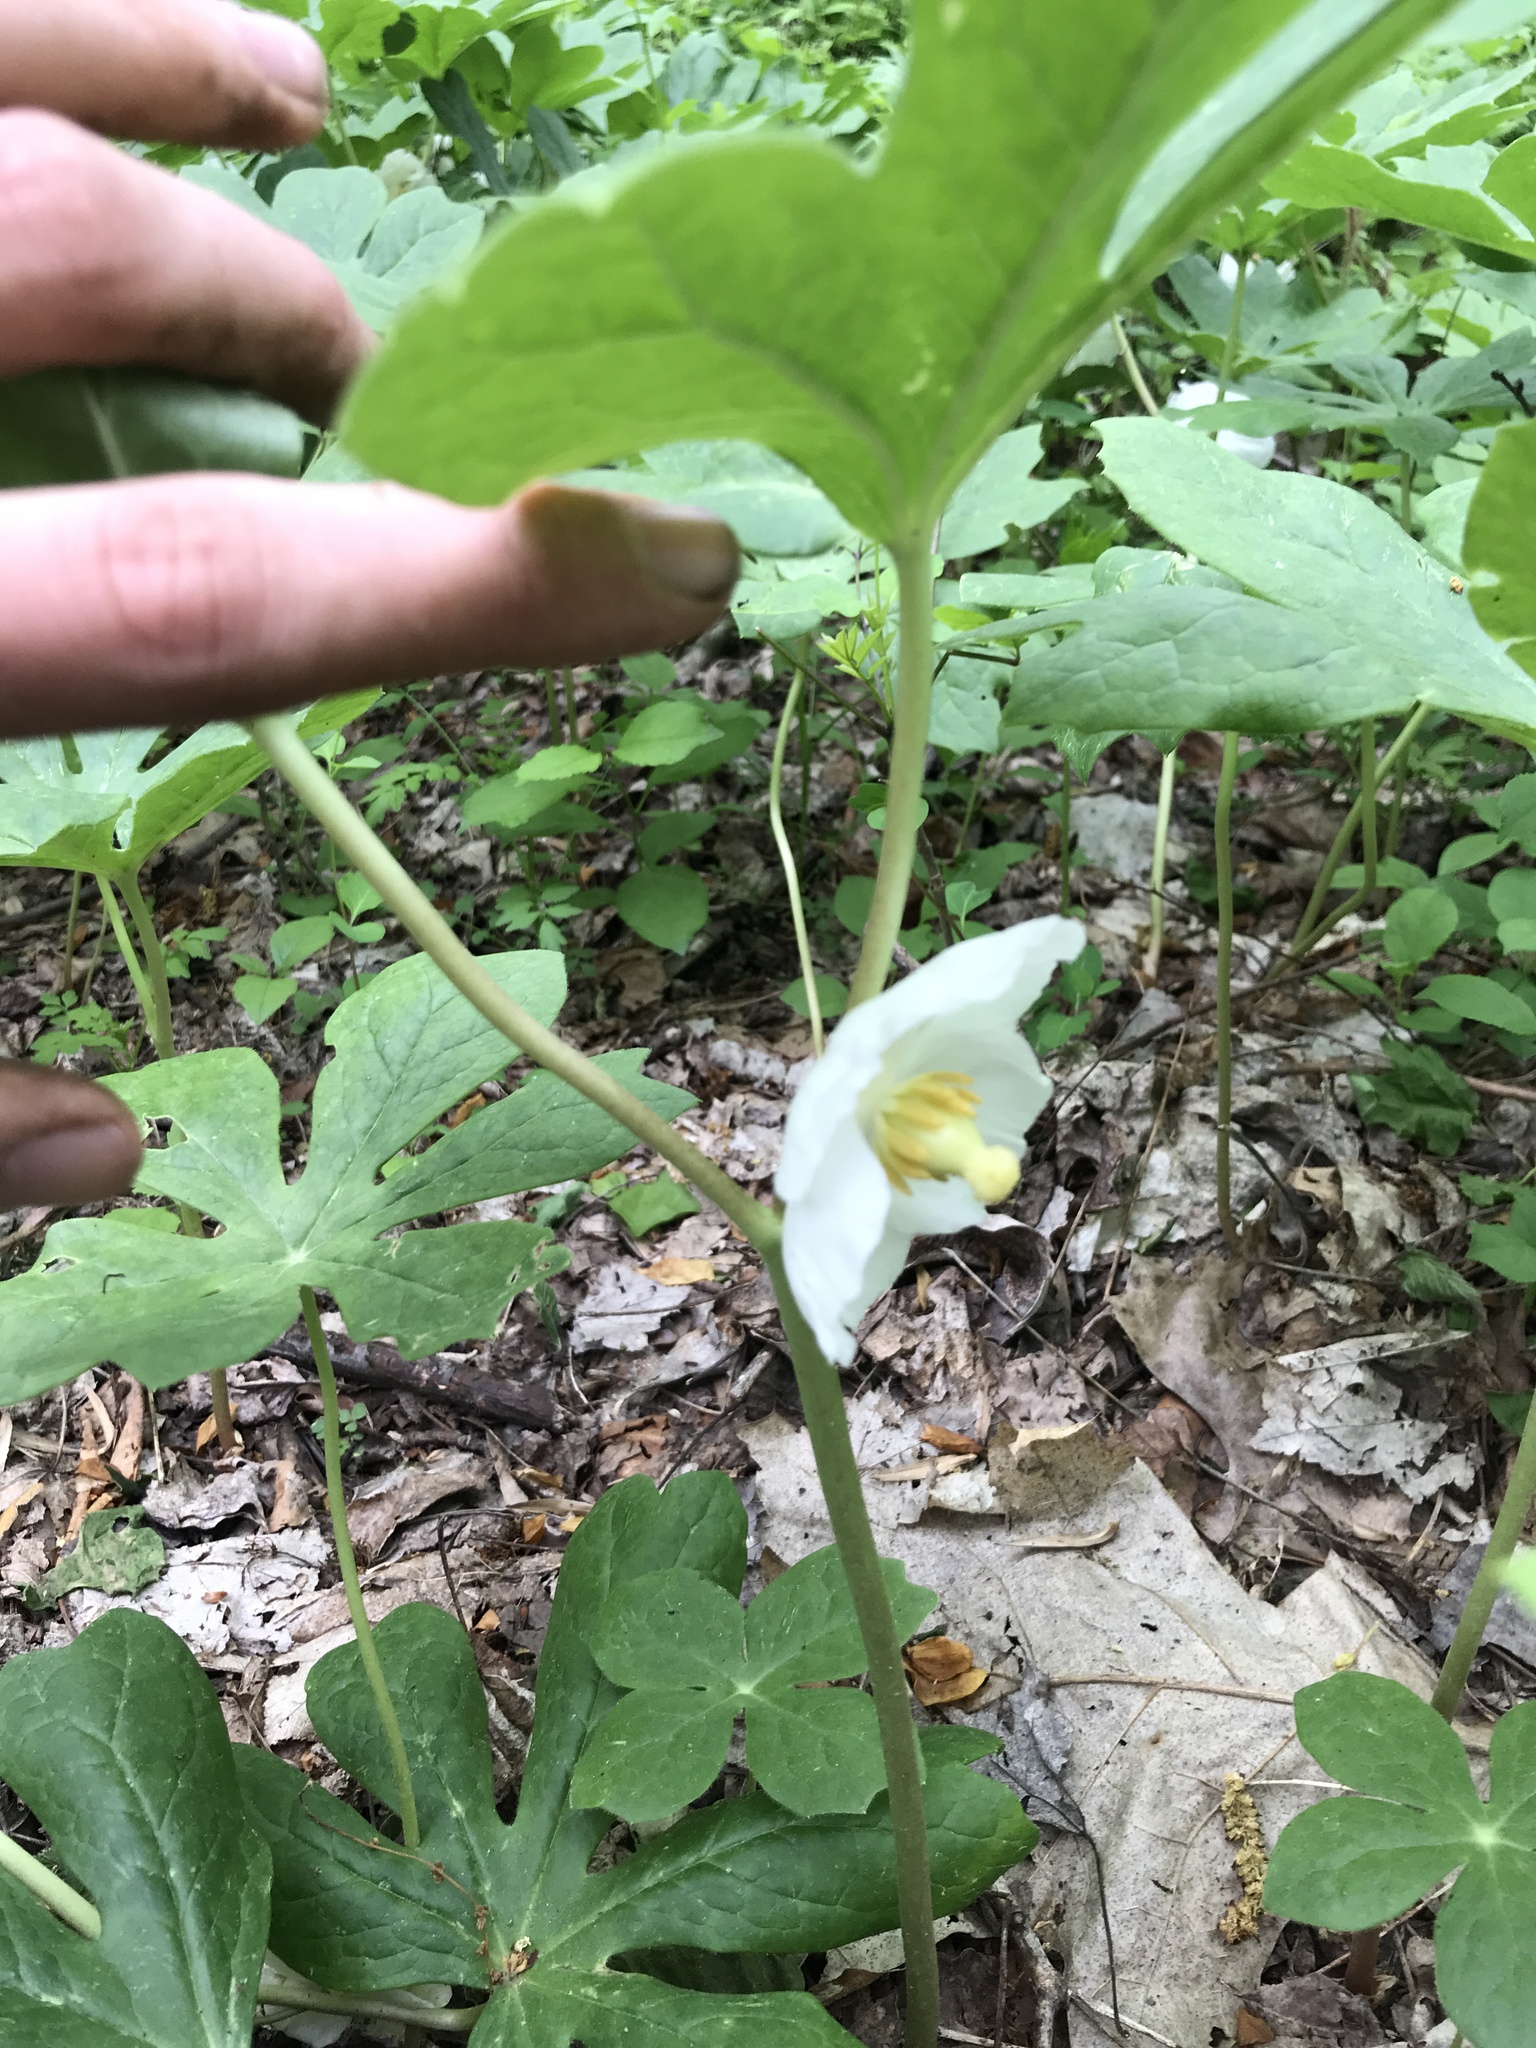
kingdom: Plantae
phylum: Tracheophyta
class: Magnoliopsida
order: Ranunculales
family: Berberidaceae
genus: Podophyllum
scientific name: Podophyllum peltatum
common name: Wild mandrake
